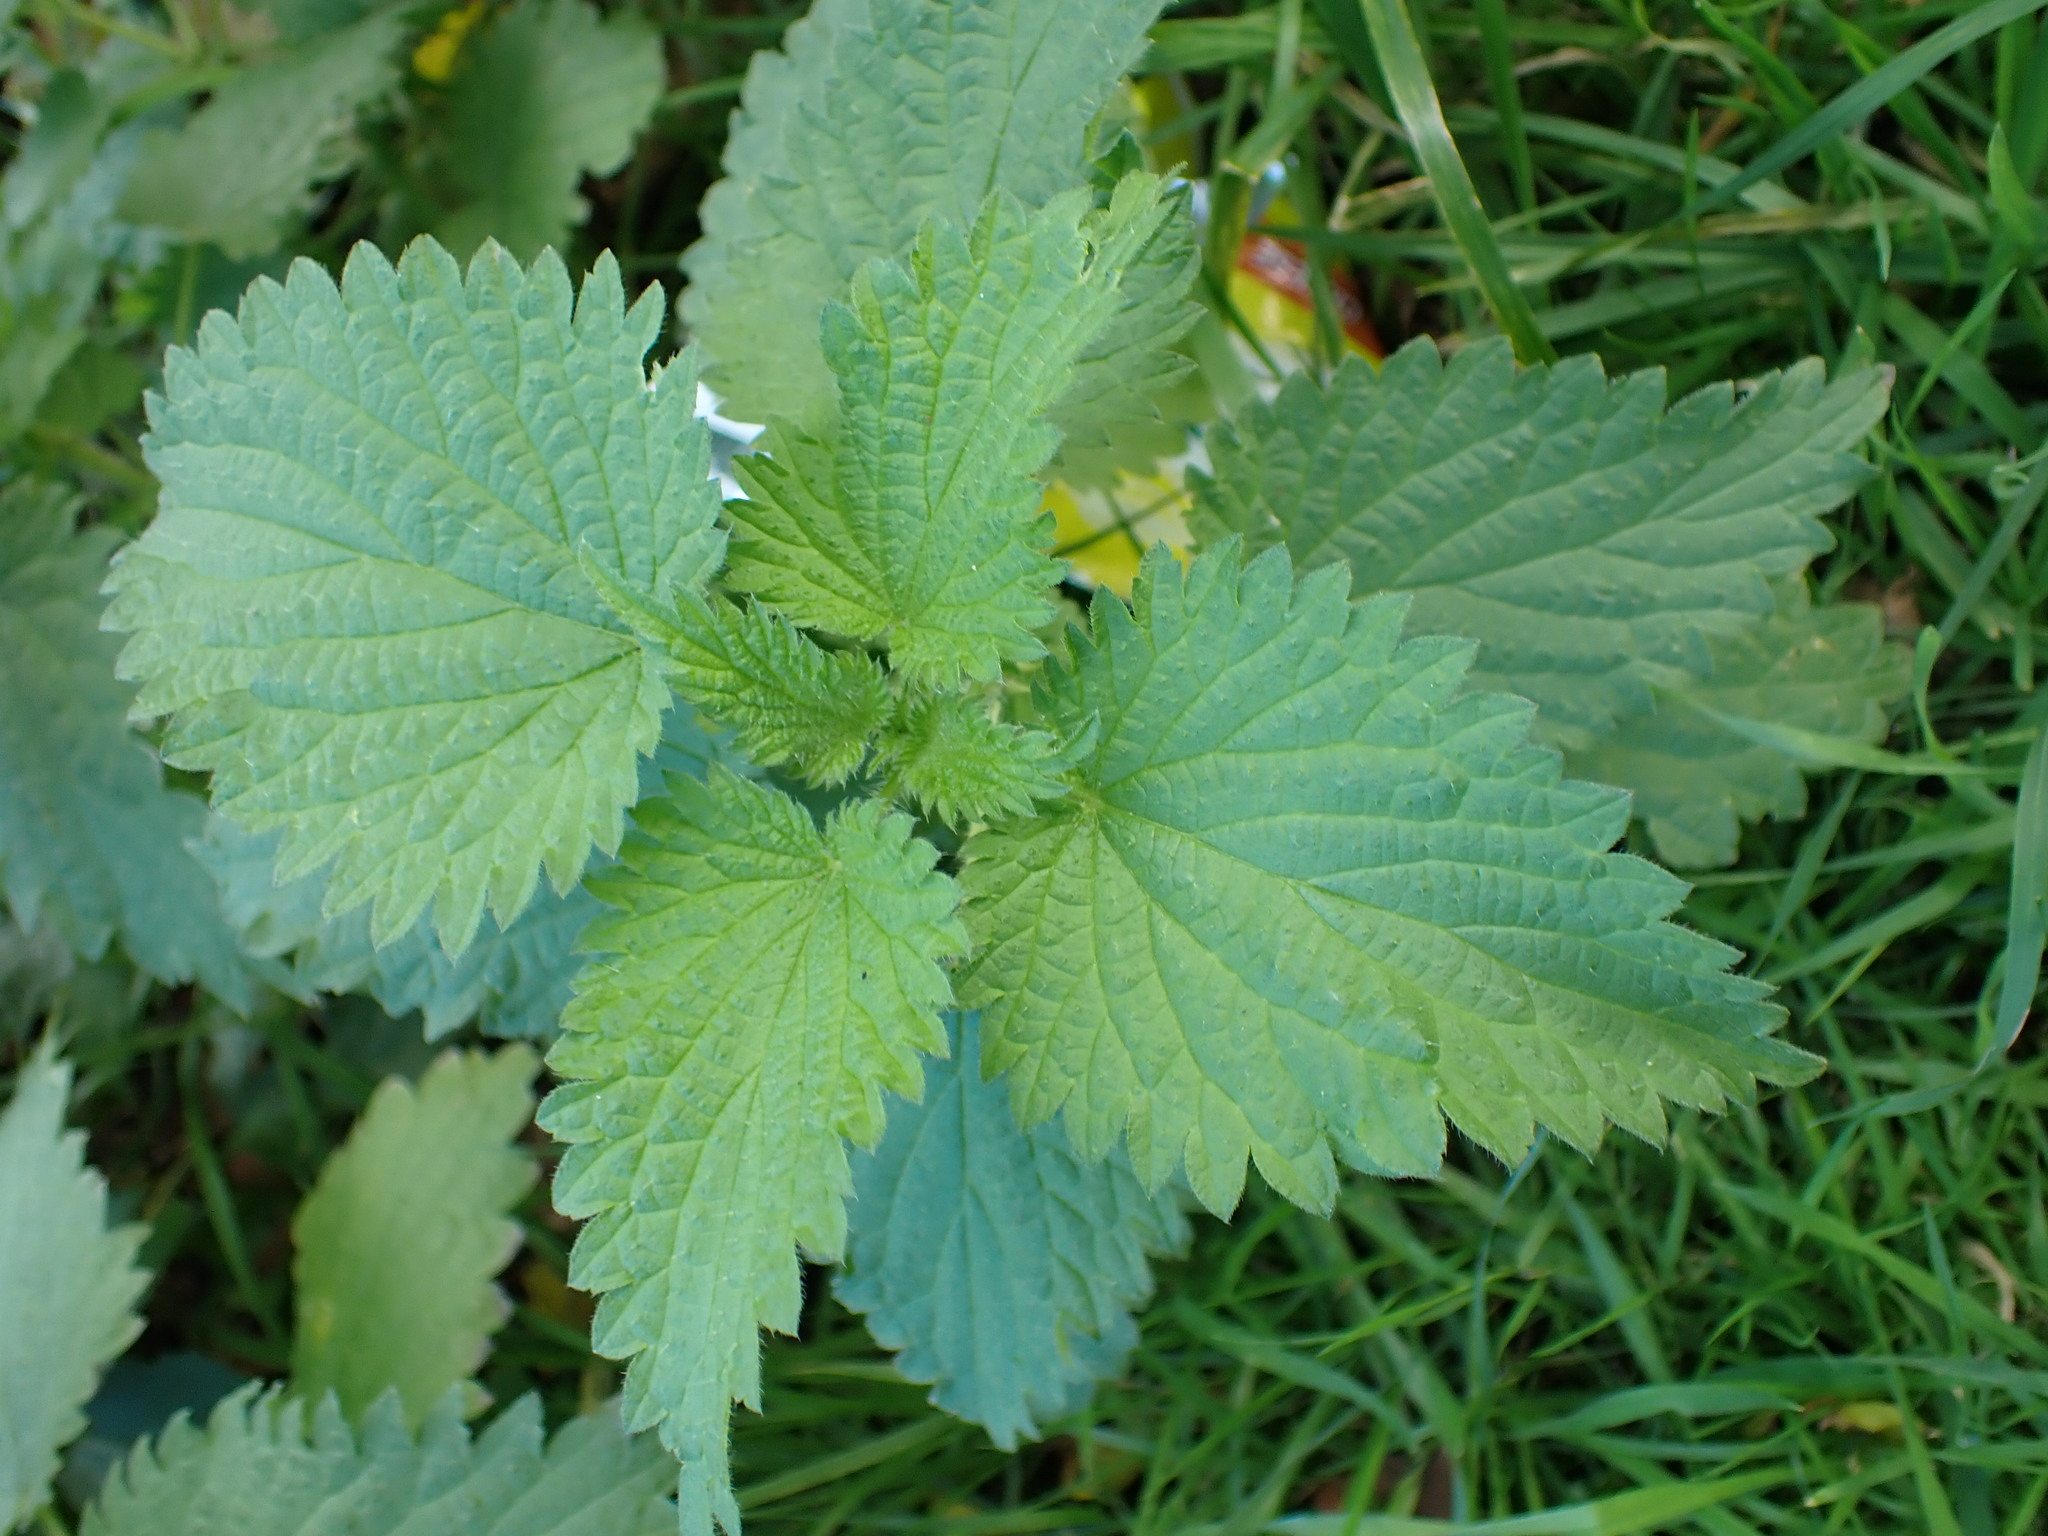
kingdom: Plantae
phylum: Tracheophyta
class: Magnoliopsida
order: Rosales
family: Urticaceae
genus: Urtica
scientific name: Urtica dioica
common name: Common nettle
